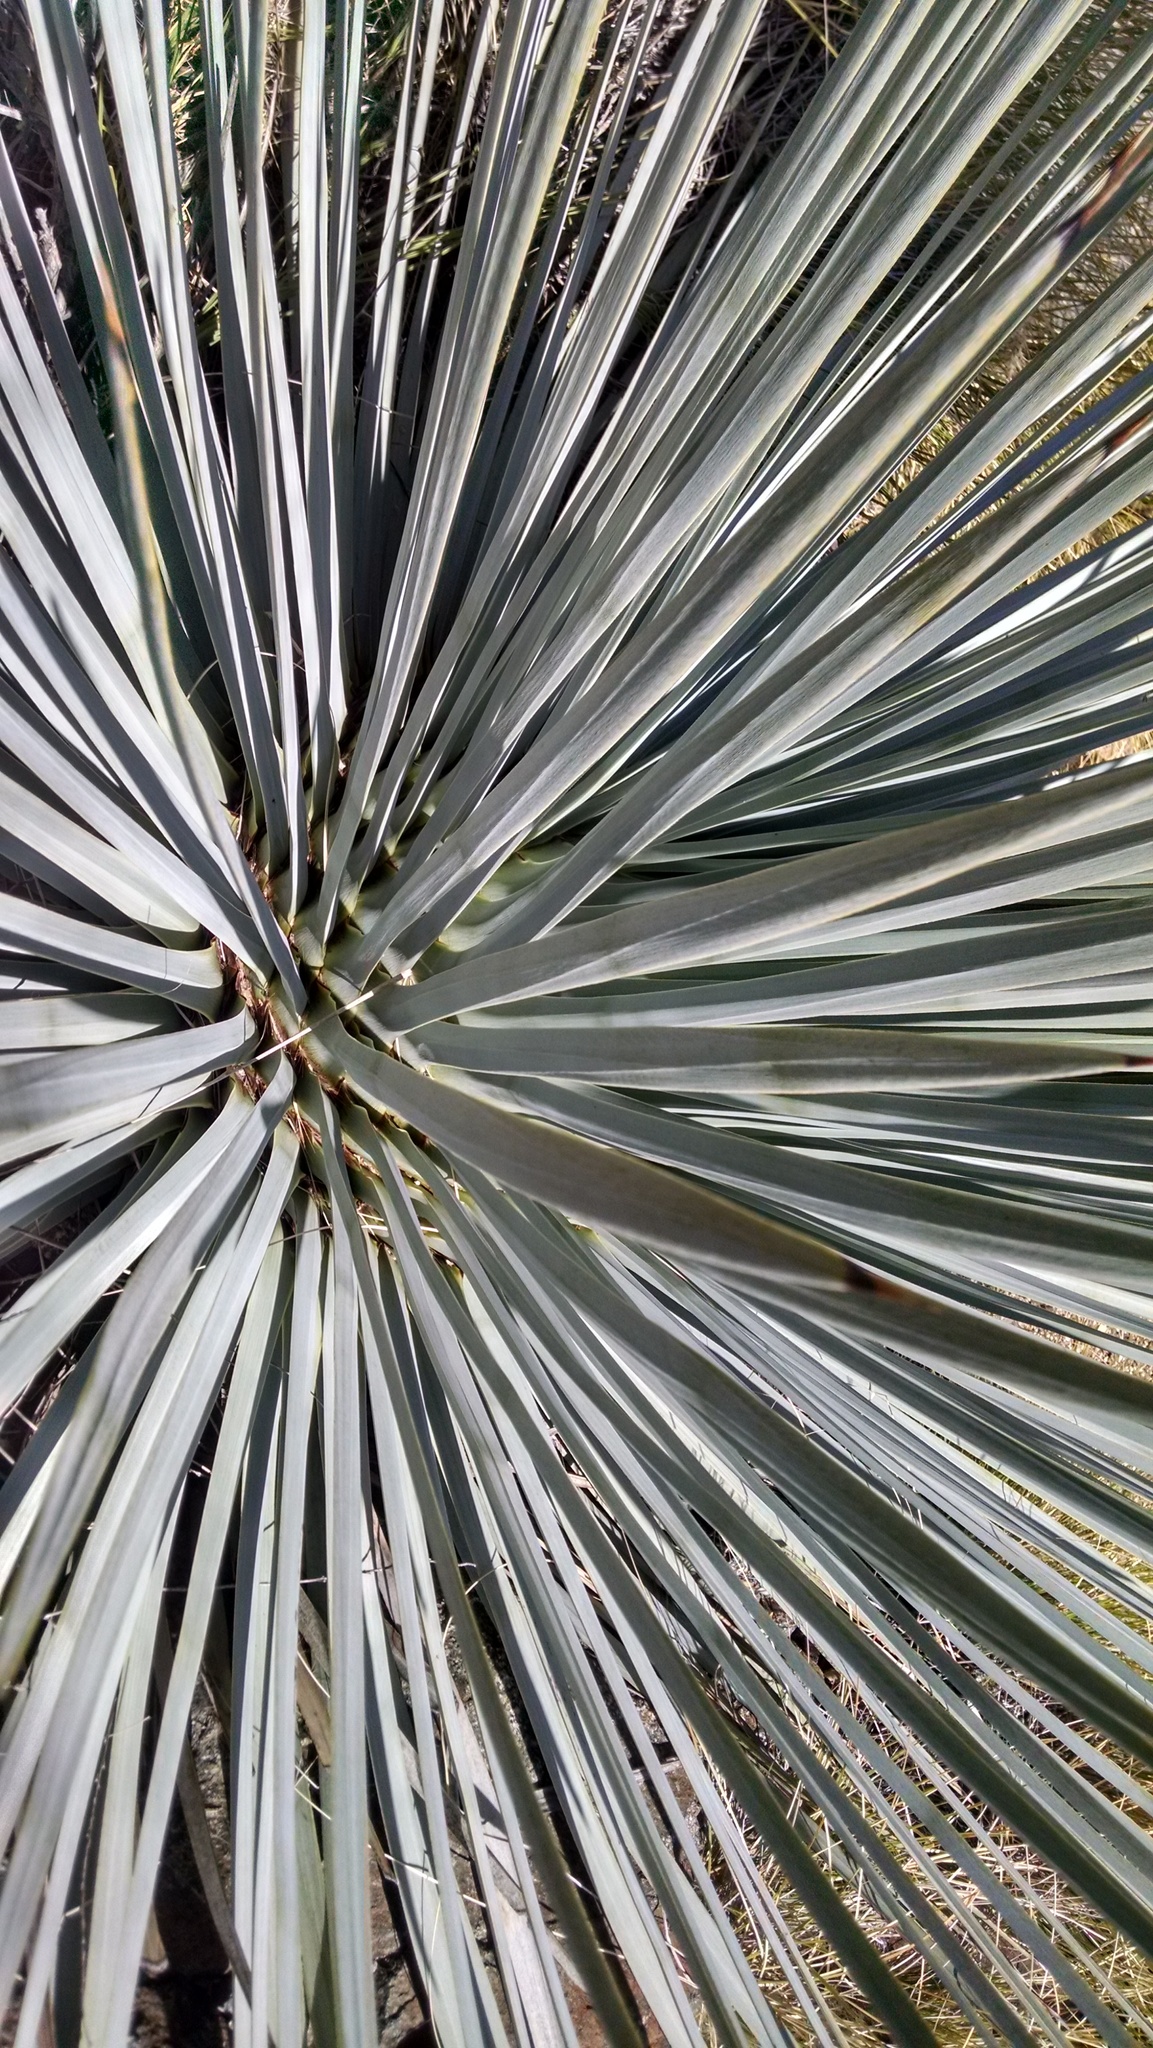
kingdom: Plantae
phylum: Tracheophyta
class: Liliopsida
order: Asparagales
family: Asparagaceae
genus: Hesperoyucca
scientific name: Hesperoyucca whipplei
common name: Our lord's-candle
